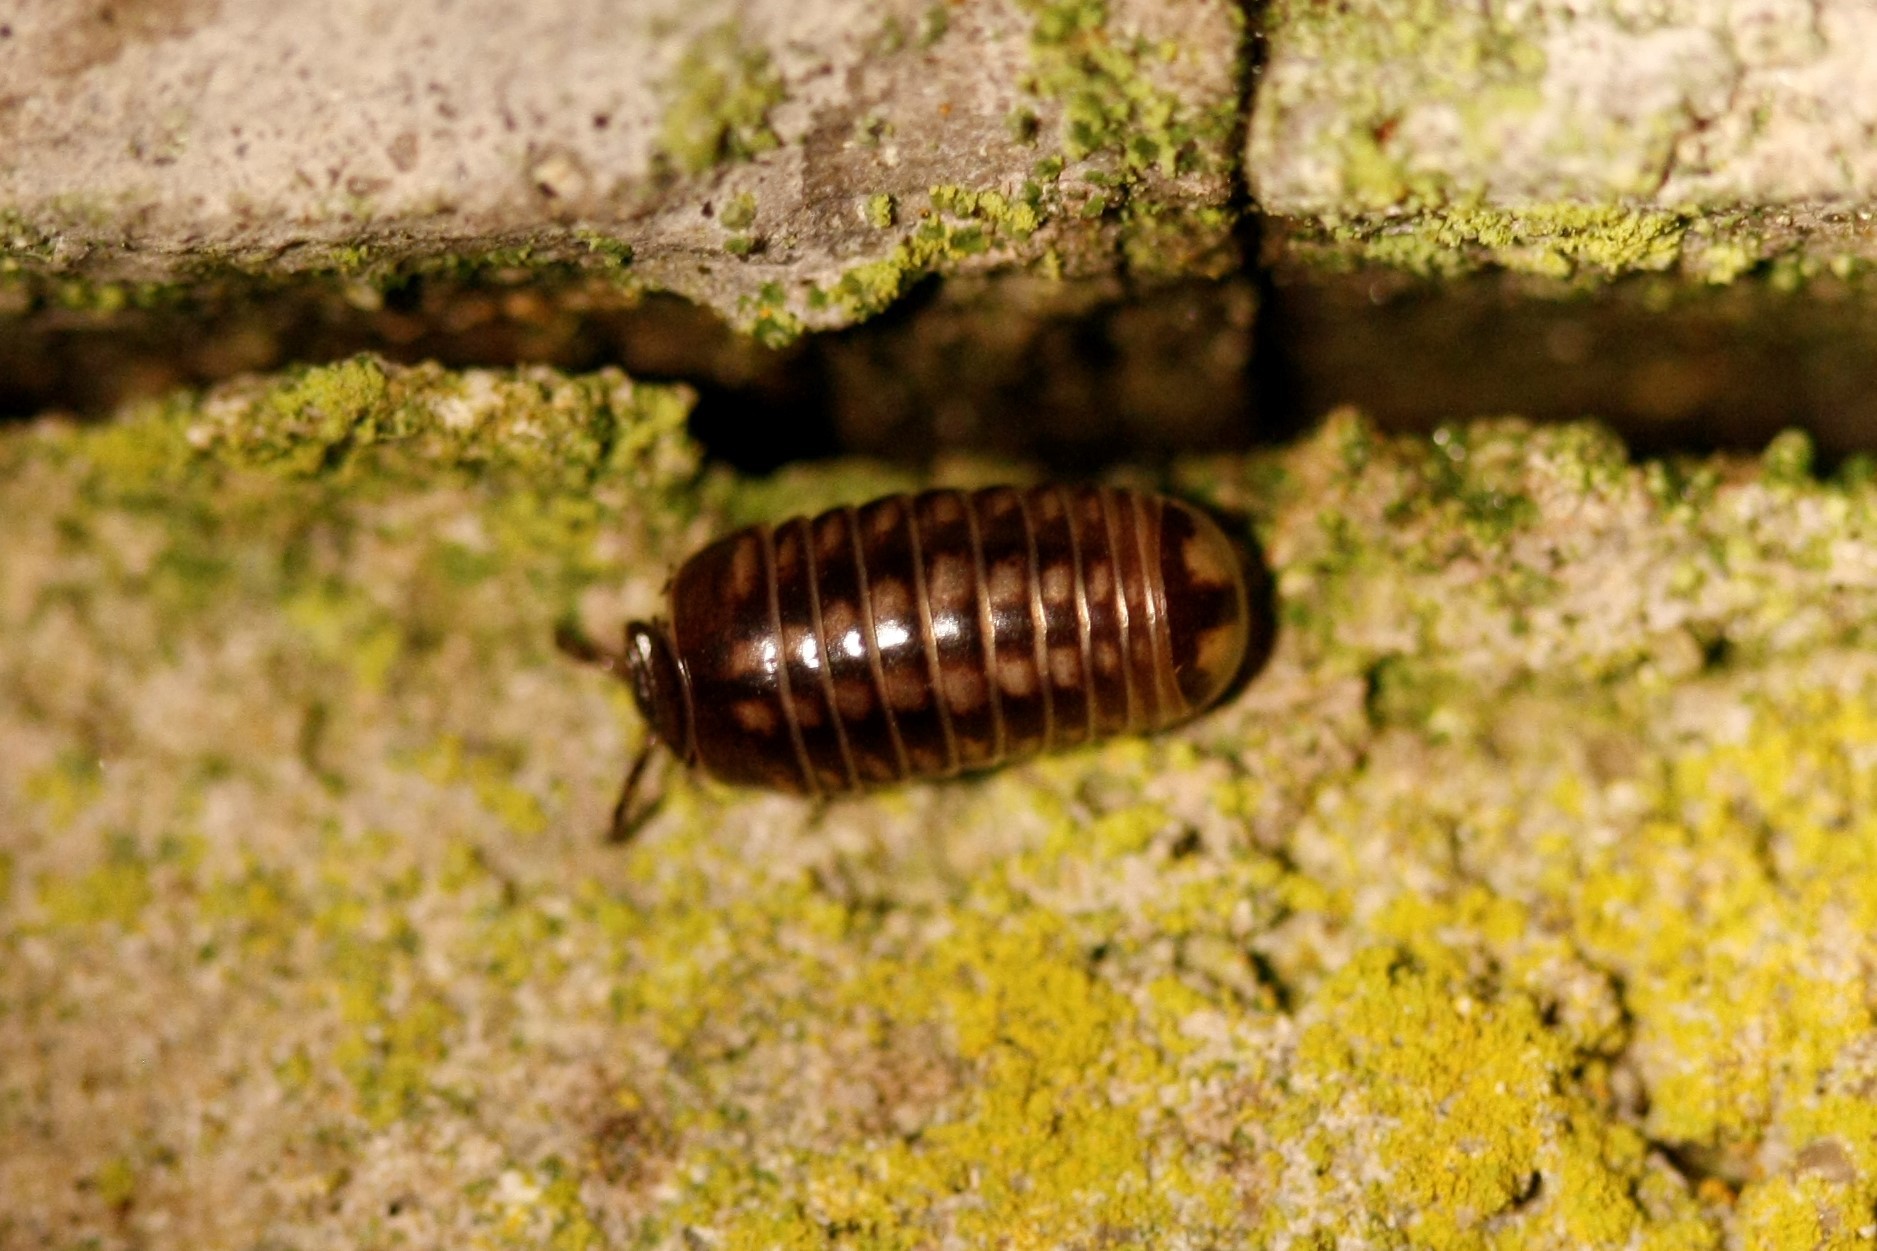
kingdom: Animalia
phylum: Arthropoda
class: Diplopoda
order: Glomerida
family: Glomeridae
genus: Glomeris
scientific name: Glomeris intermedia
